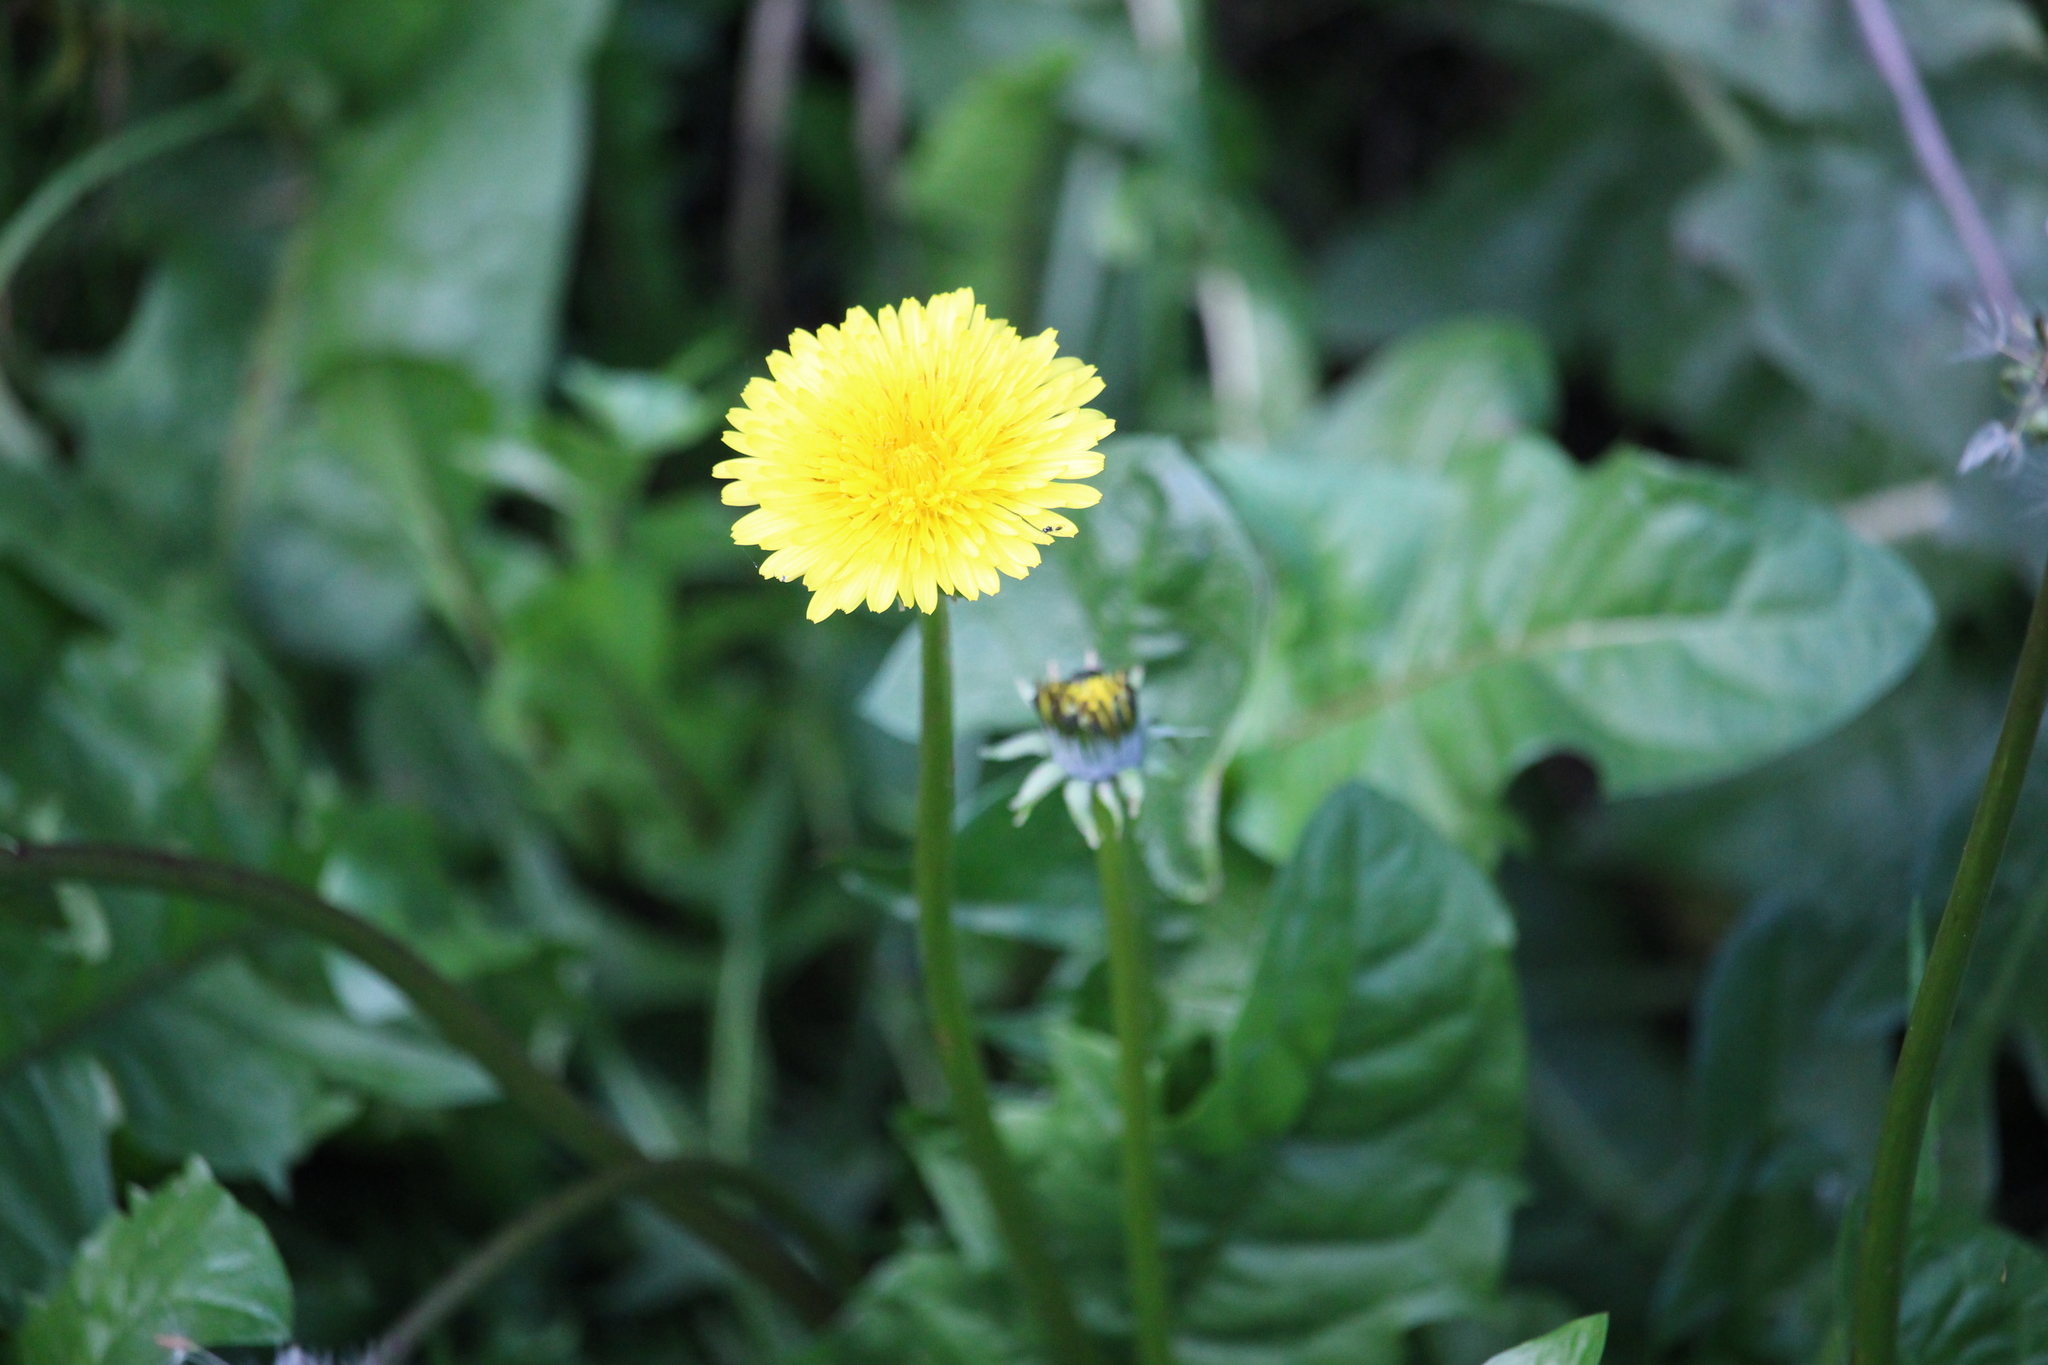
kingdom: Plantae
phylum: Tracheophyta
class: Magnoliopsida
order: Asterales
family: Asteraceae
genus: Taraxacum
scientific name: Taraxacum officinale
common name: Common dandelion
